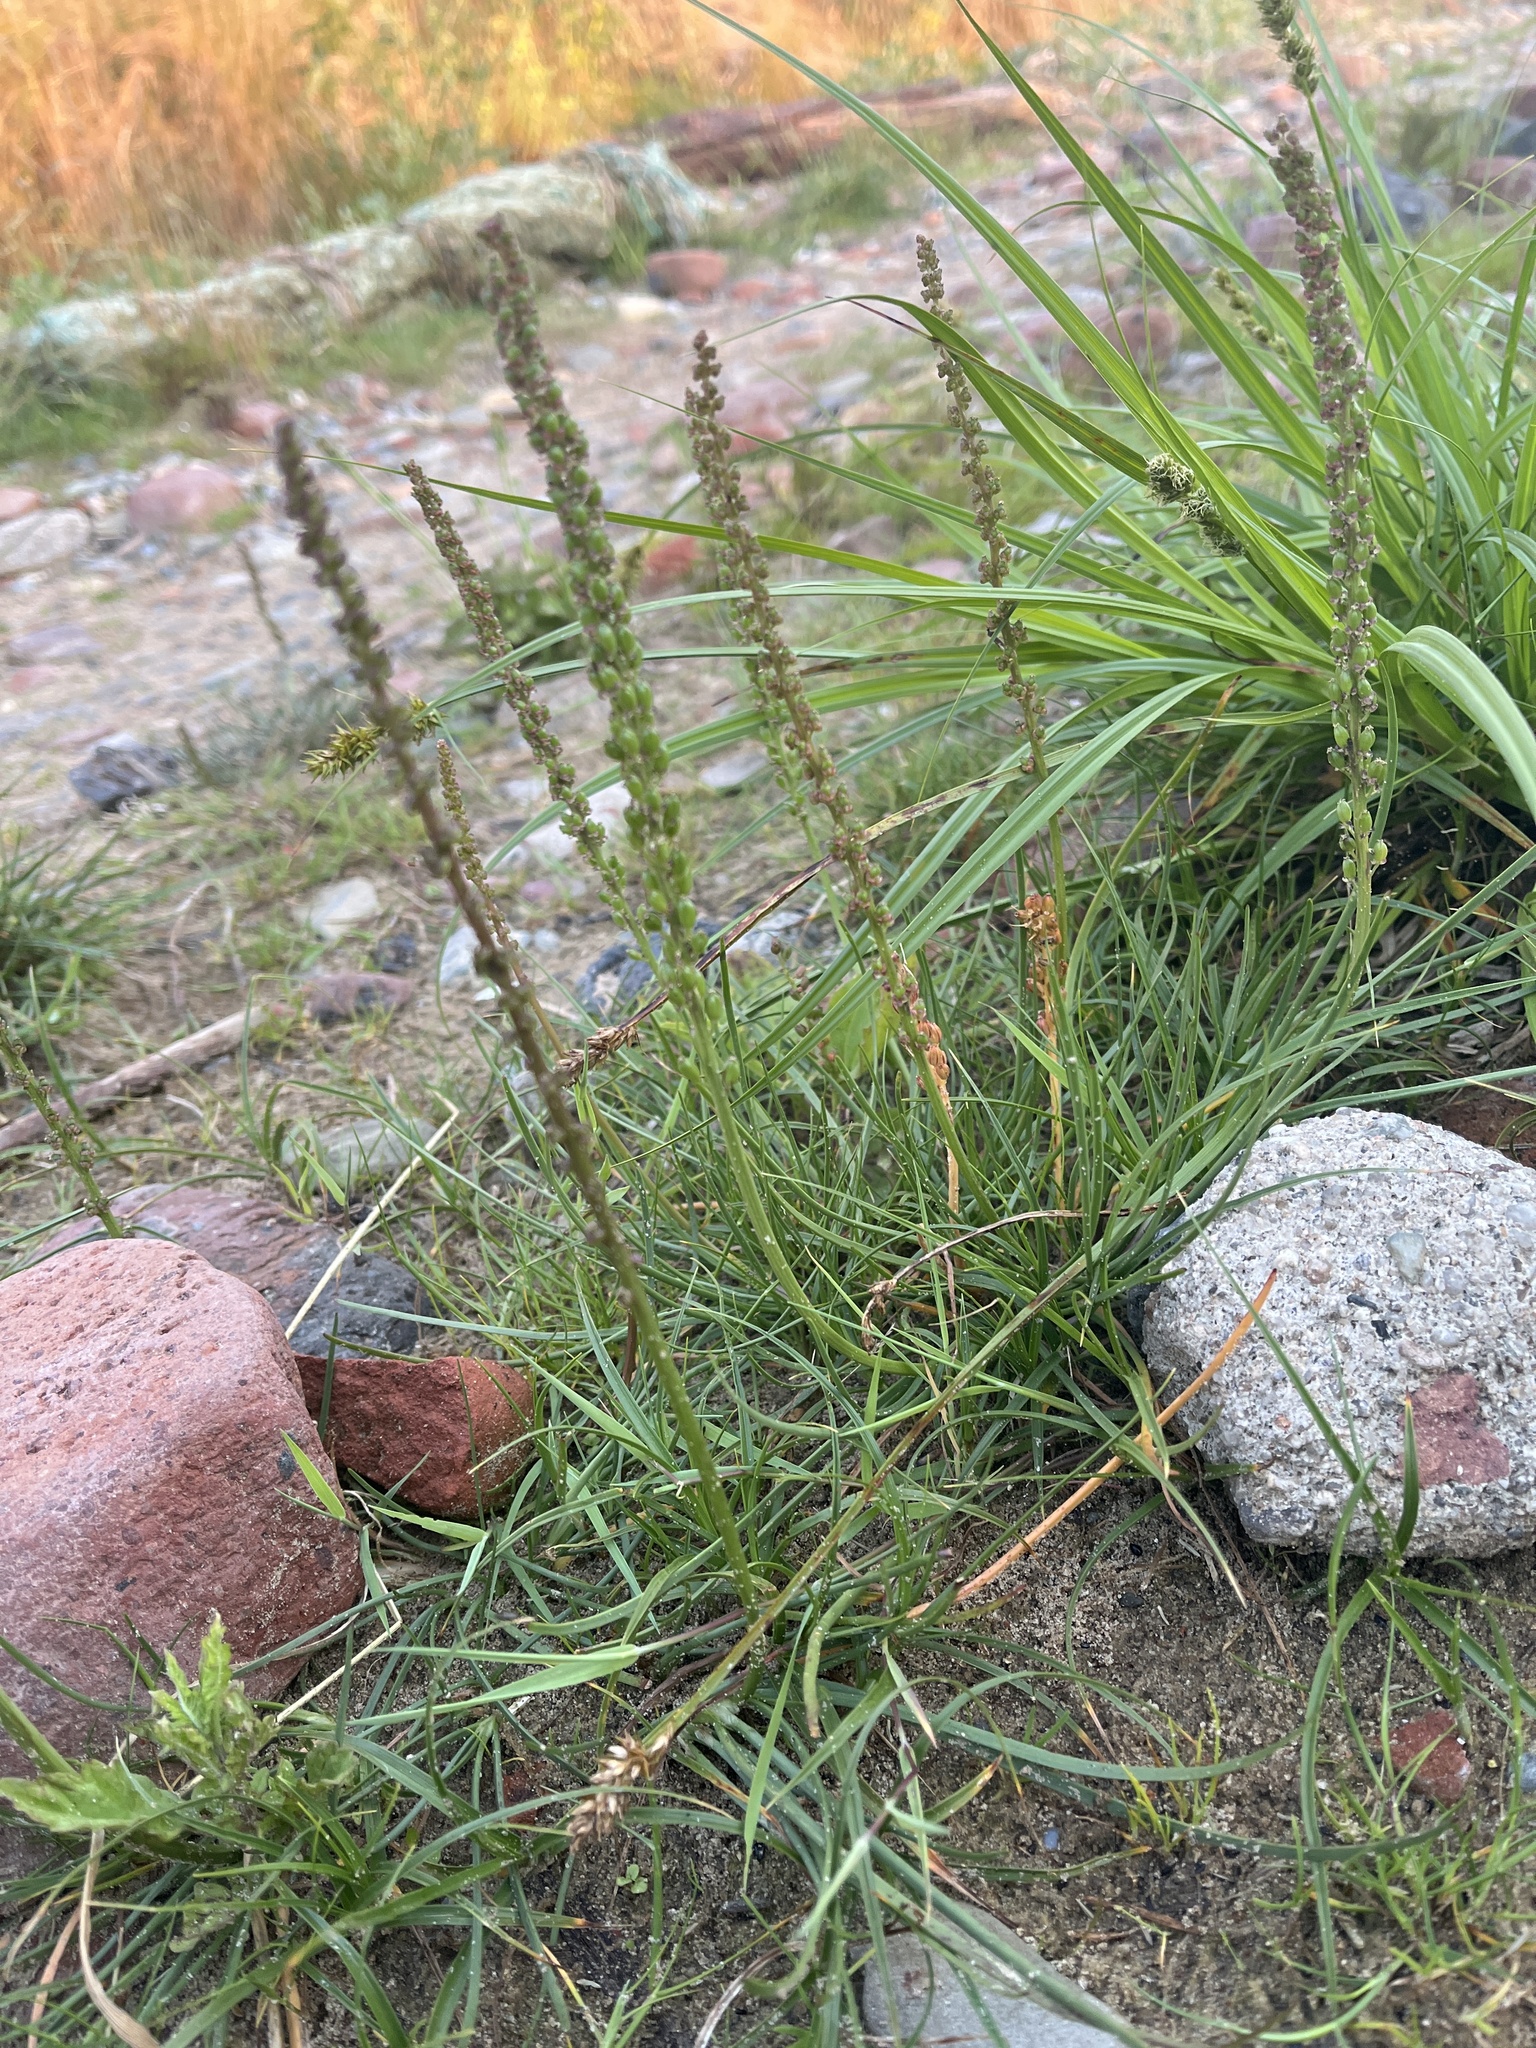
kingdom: Plantae
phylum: Tracheophyta
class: Liliopsida
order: Alismatales
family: Juncaginaceae
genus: Triglochin
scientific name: Triglochin maritima
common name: Sea arrowgrass
